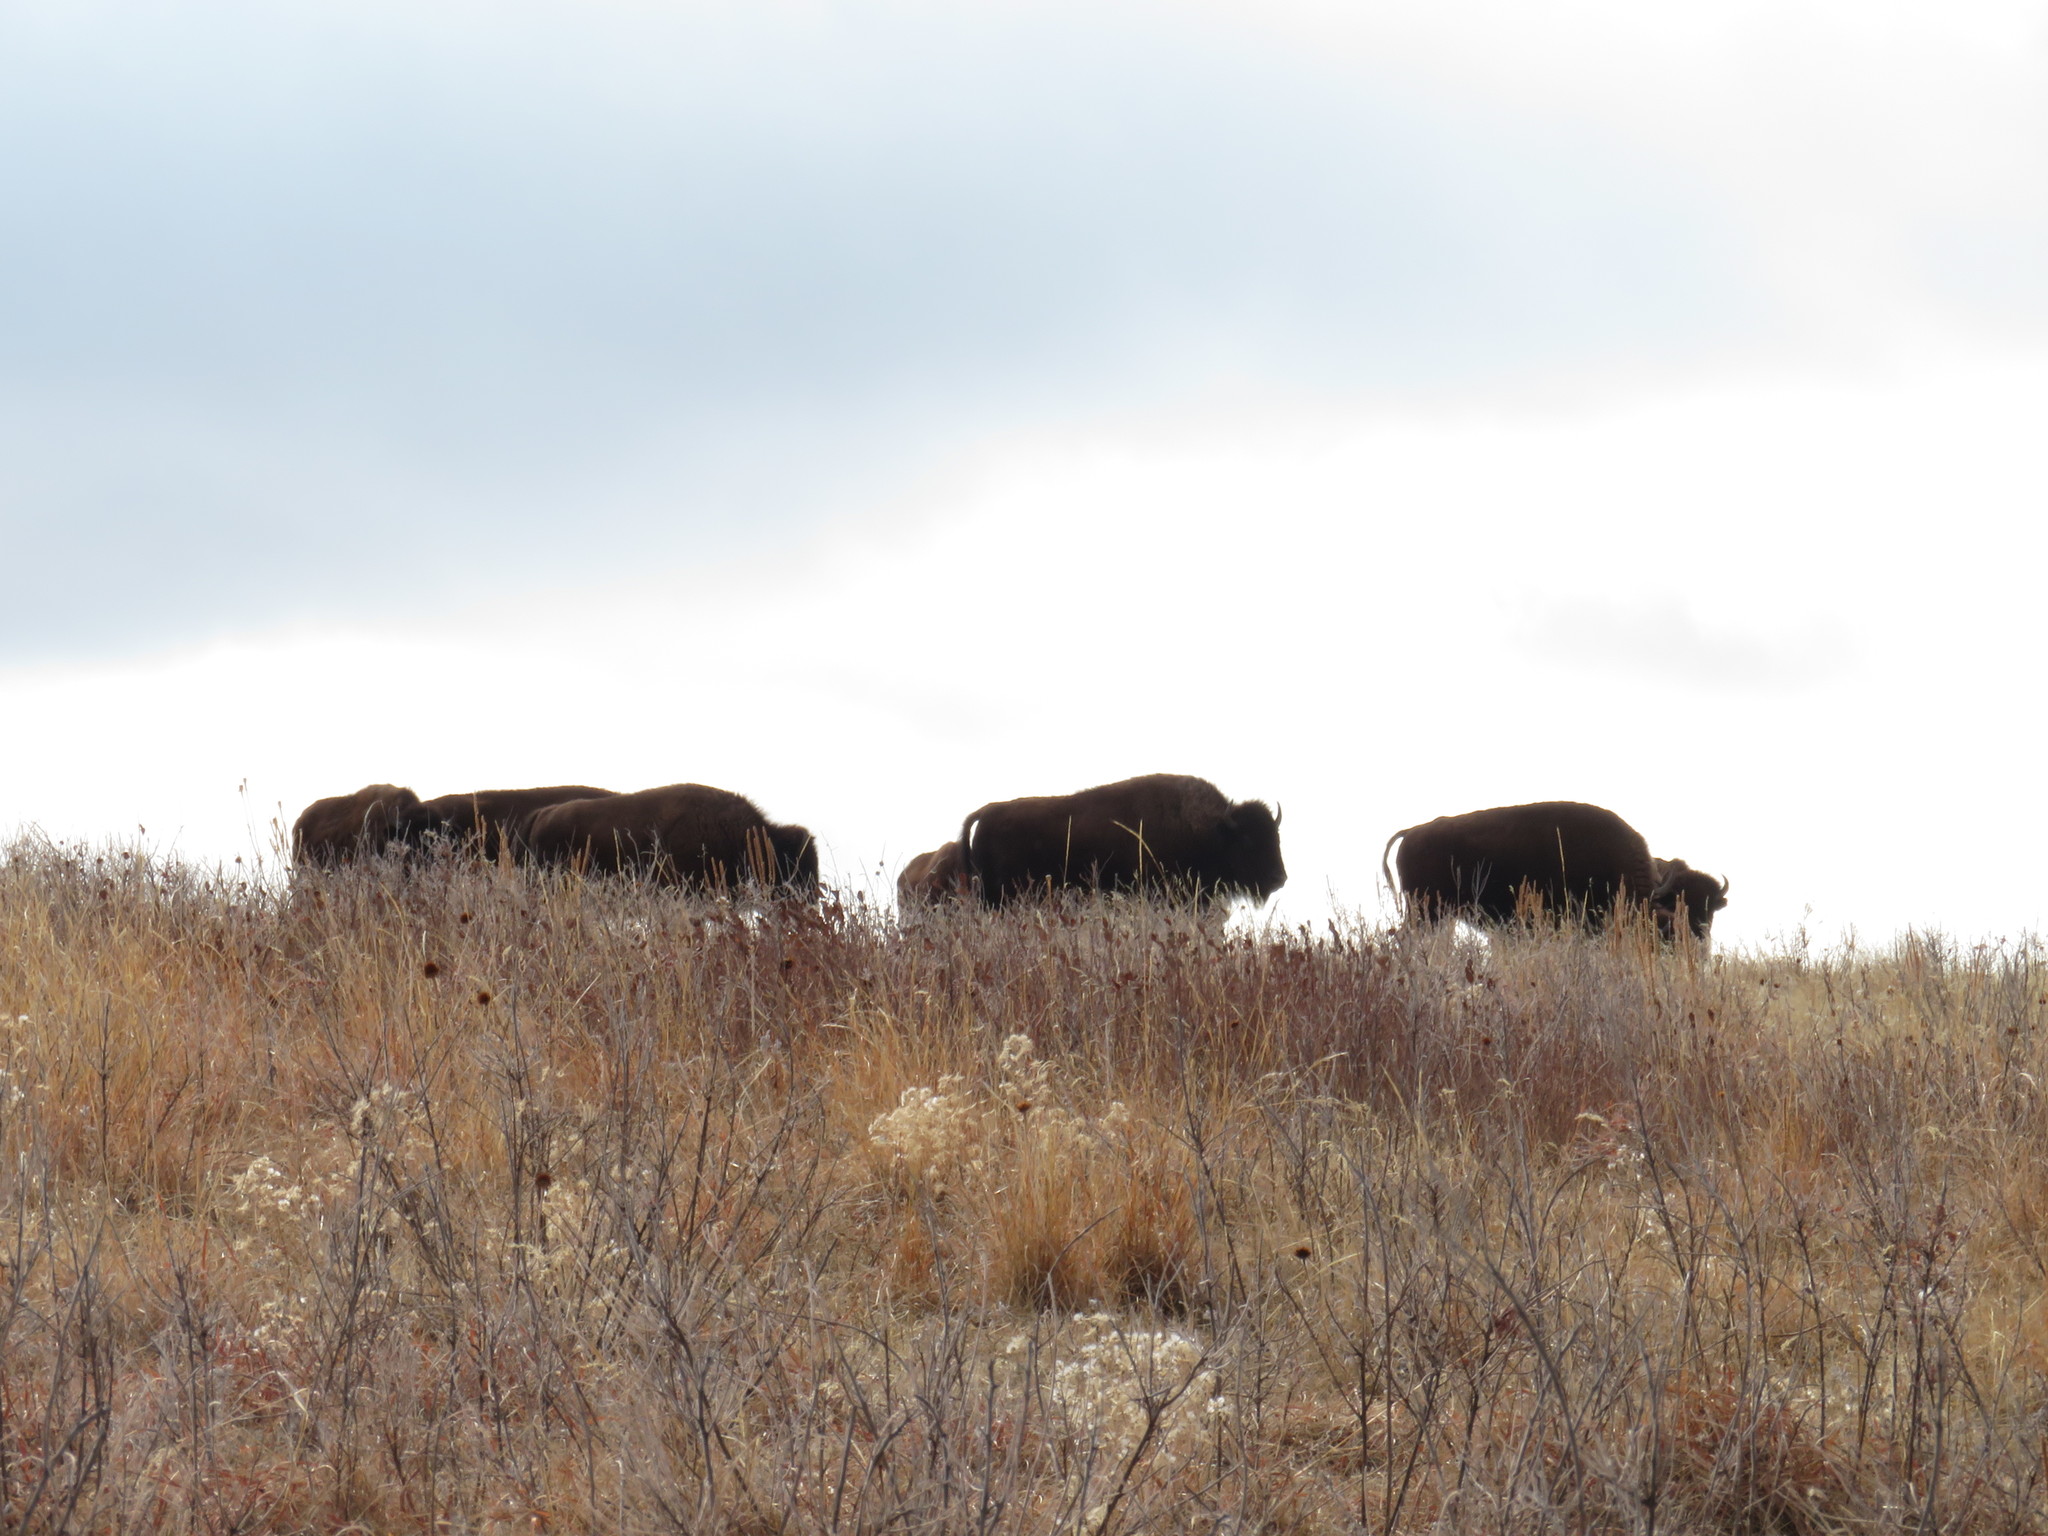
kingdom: Animalia
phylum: Chordata
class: Mammalia
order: Artiodactyla
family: Bovidae
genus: Bison
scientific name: Bison bison
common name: American bison
